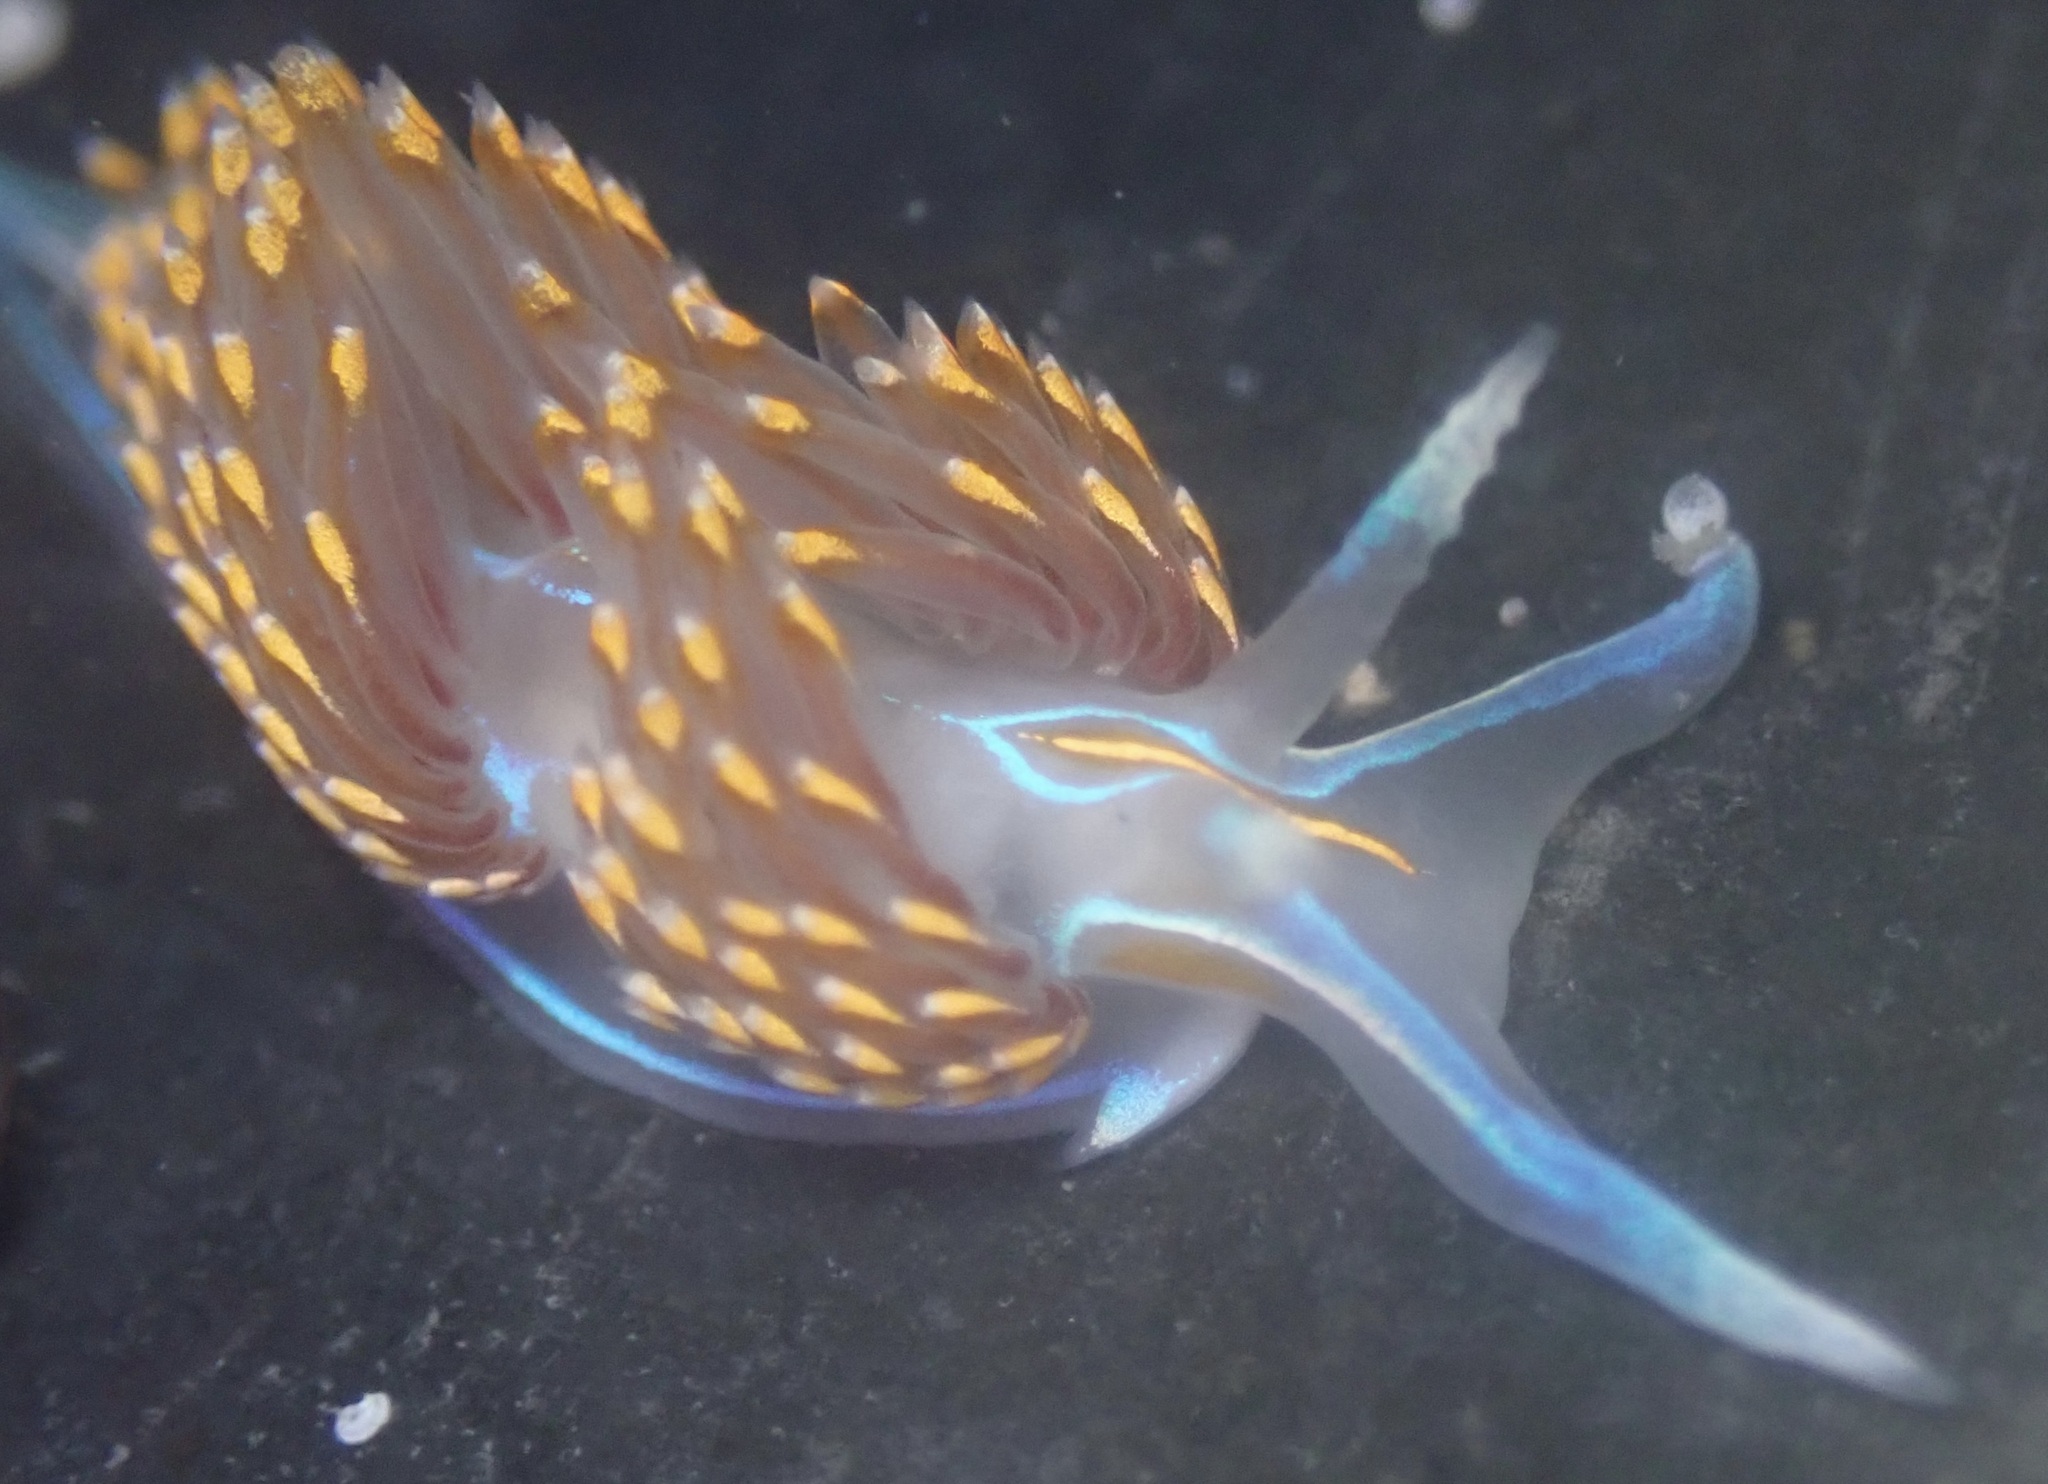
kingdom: Animalia
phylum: Mollusca
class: Gastropoda
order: Nudibranchia
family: Myrrhinidae
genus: Hermissenda
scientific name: Hermissenda opalescens
